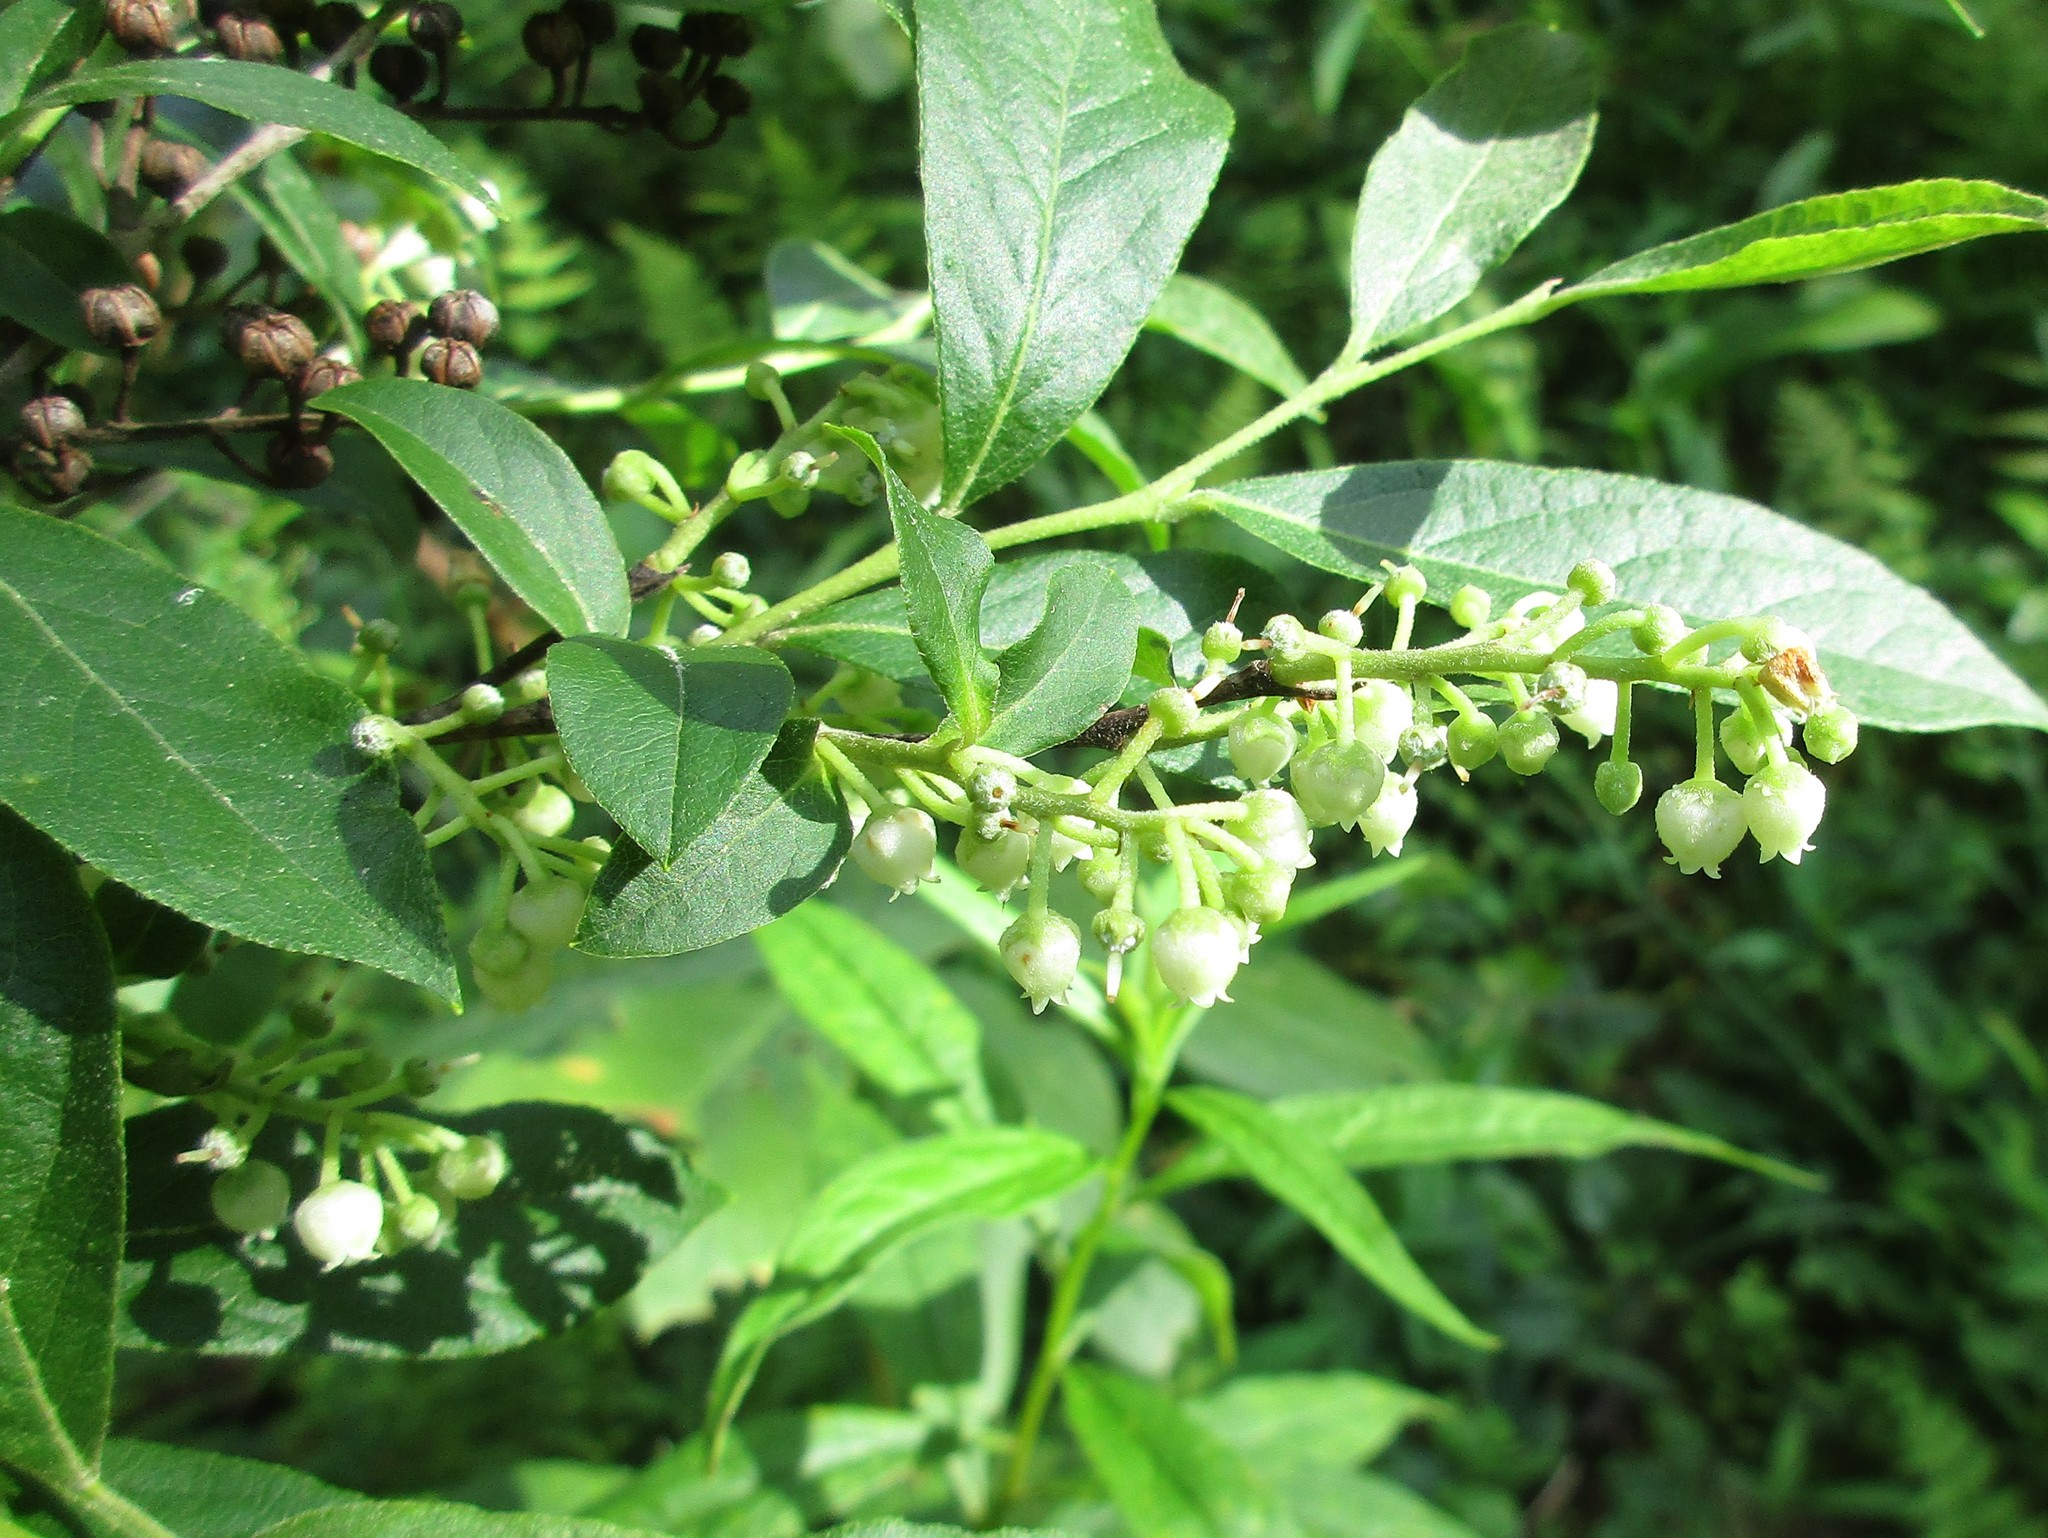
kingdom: Plantae
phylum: Tracheophyta
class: Magnoliopsida
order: Ericales
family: Ericaceae
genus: Lyonia
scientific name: Lyonia ligustrina
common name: Maleberry
